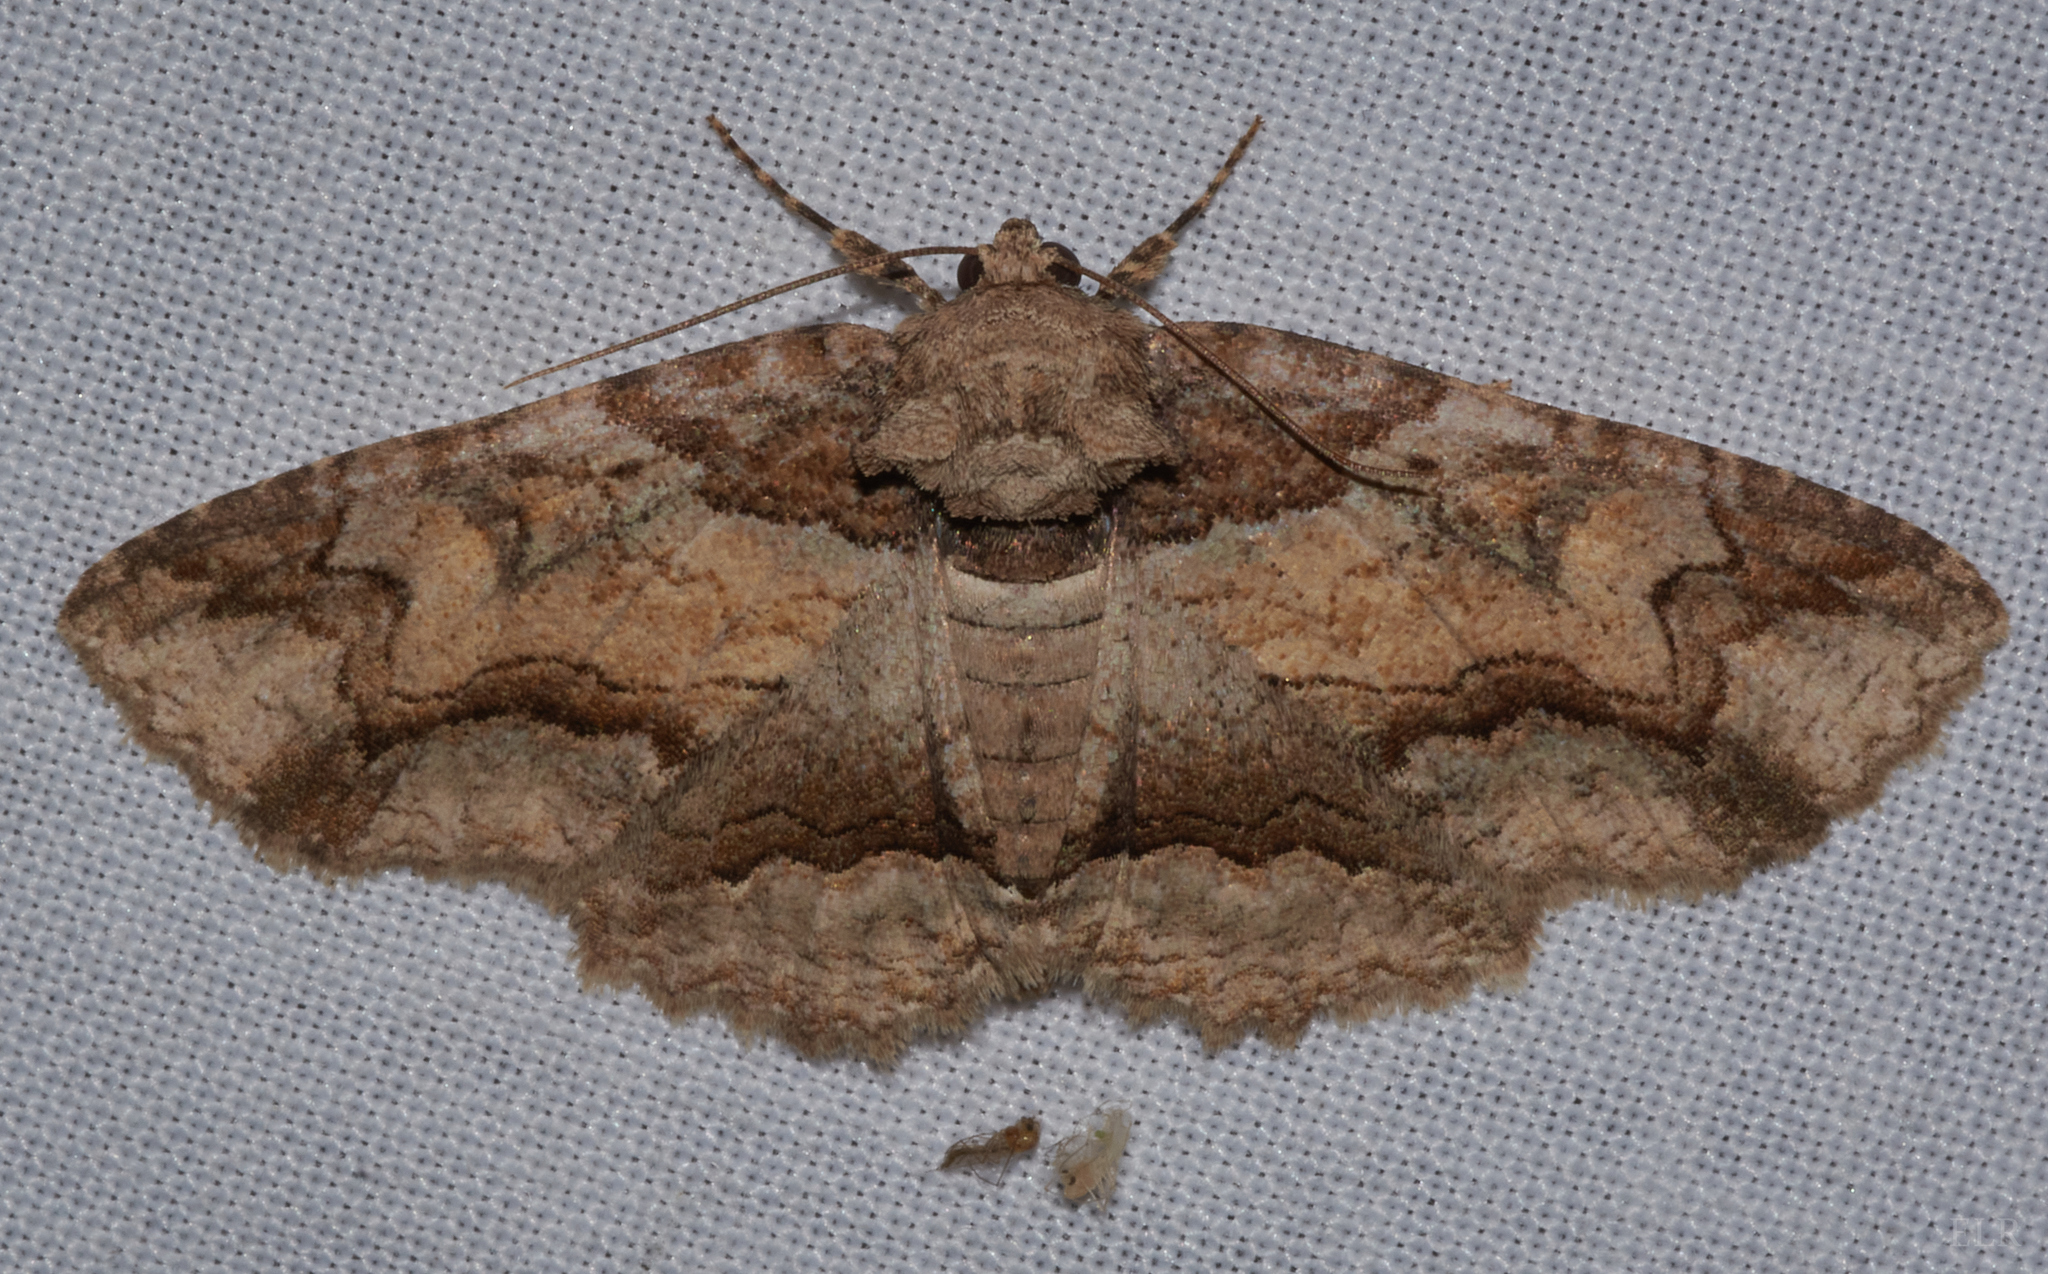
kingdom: Animalia
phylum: Arthropoda
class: Insecta
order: Lepidoptera
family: Erebidae
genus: Zale
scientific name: Zale galbanata
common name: Maple zale
